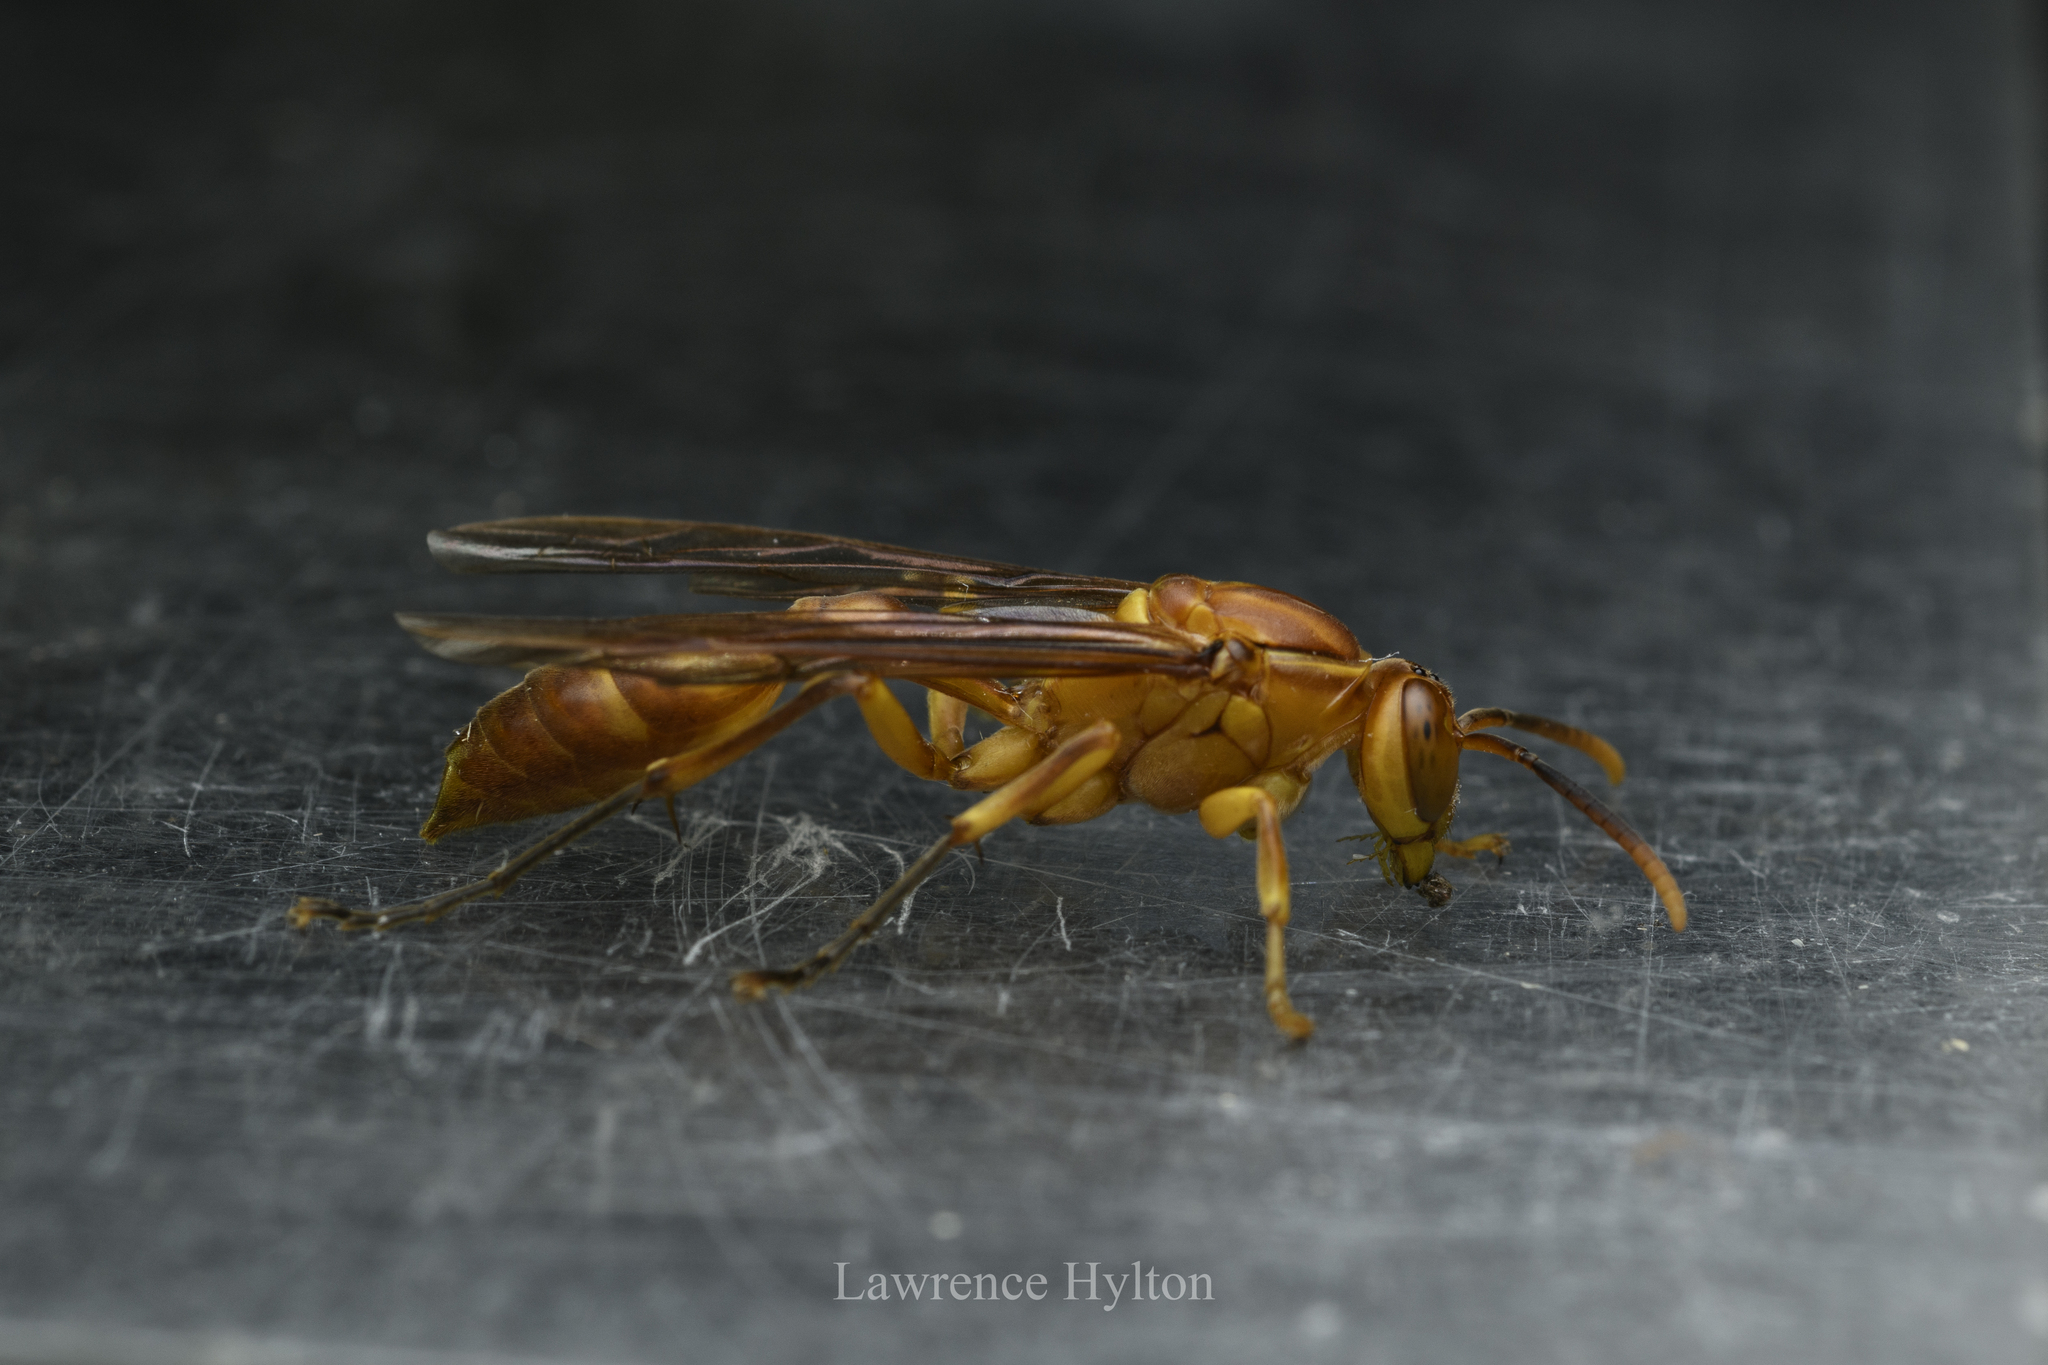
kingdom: Animalia
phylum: Arthropoda
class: Insecta
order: Hymenoptera
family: Vespidae
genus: Parapolybia
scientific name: Parapolybia indica
